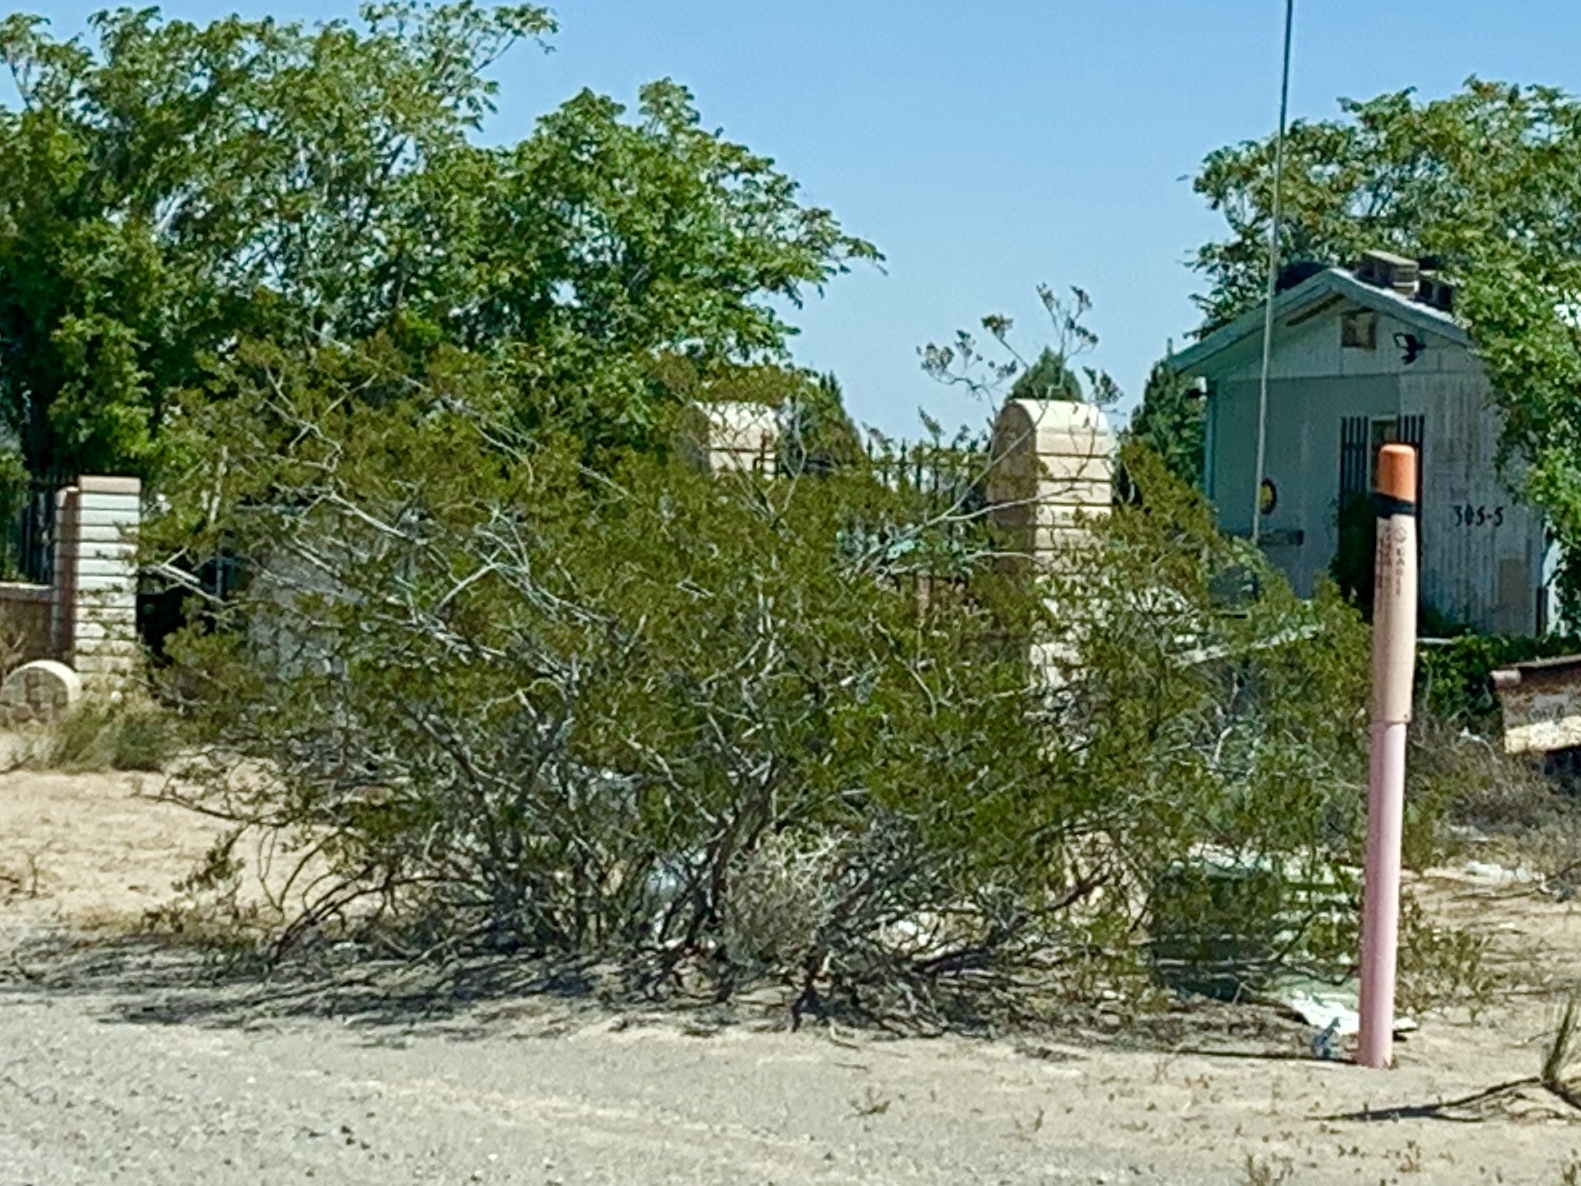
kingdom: Plantae
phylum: Tracheophyta
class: Magnoliopsida
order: Zygophyllales
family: Zygophyllaceae
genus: Larrea
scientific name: Larrea tridentata
